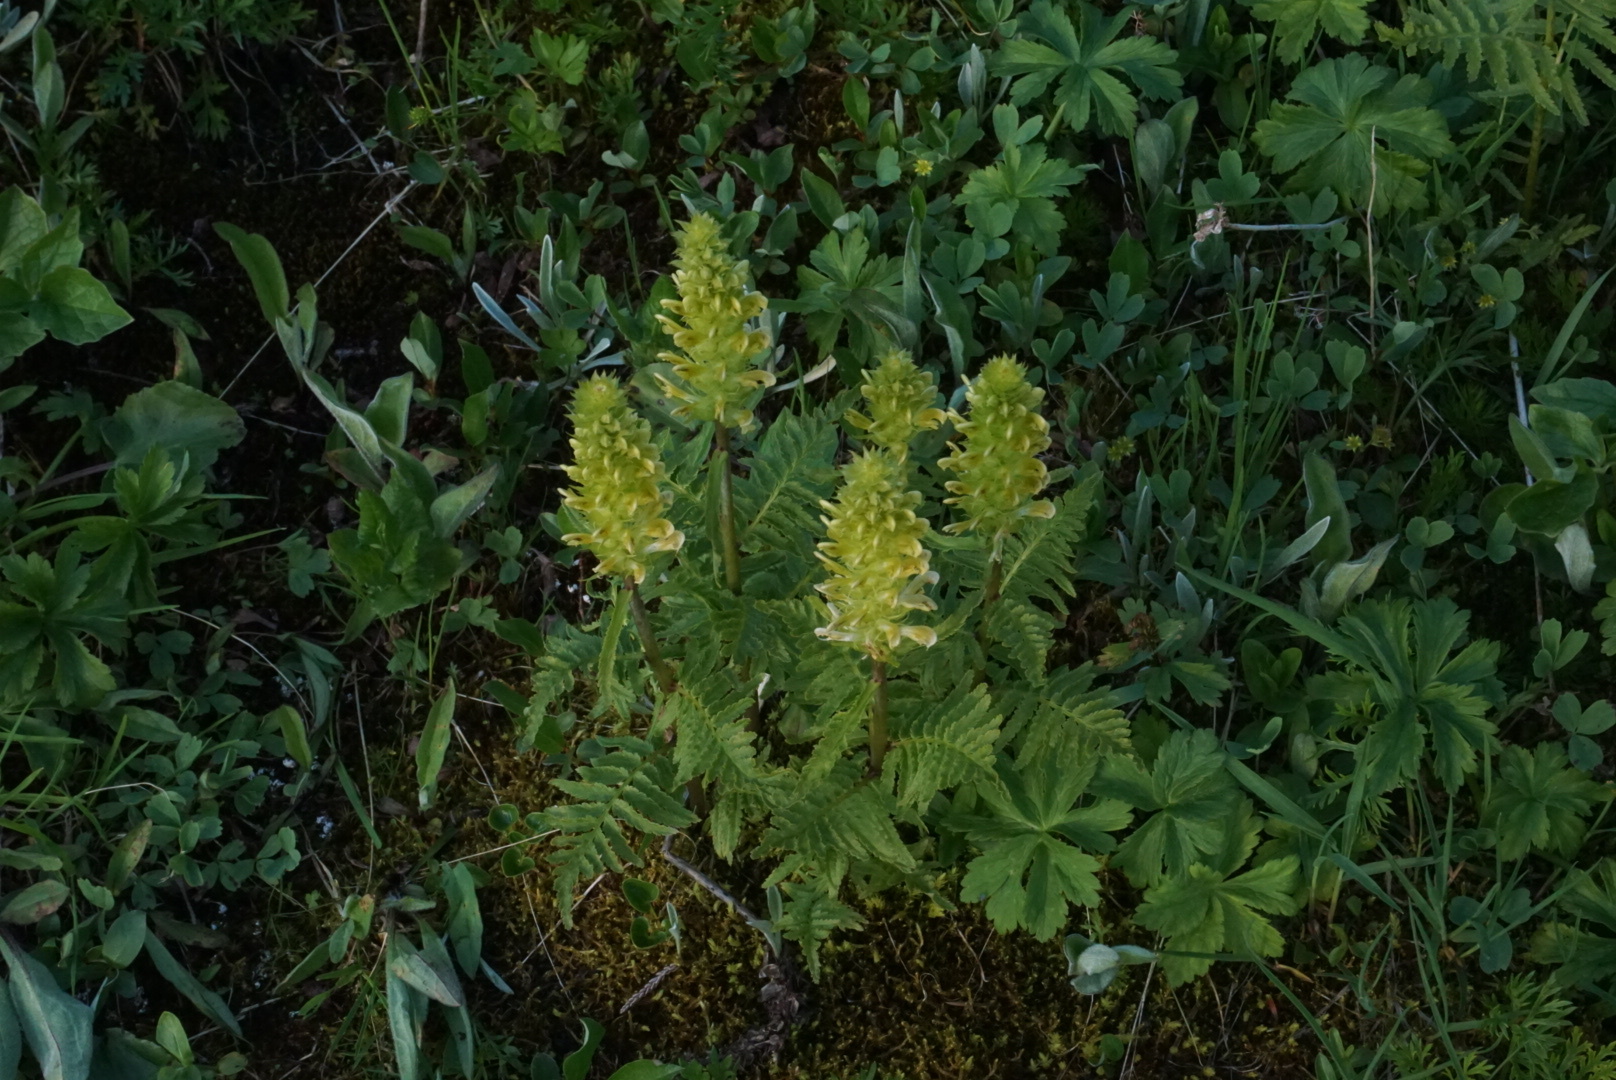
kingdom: Plantae
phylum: Tracheophyta
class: Magnoliopsida
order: Lamiales
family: Orobanchaceae
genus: Pedicularis
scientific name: Pedicularis bracteosa
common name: Bracted lousewort
